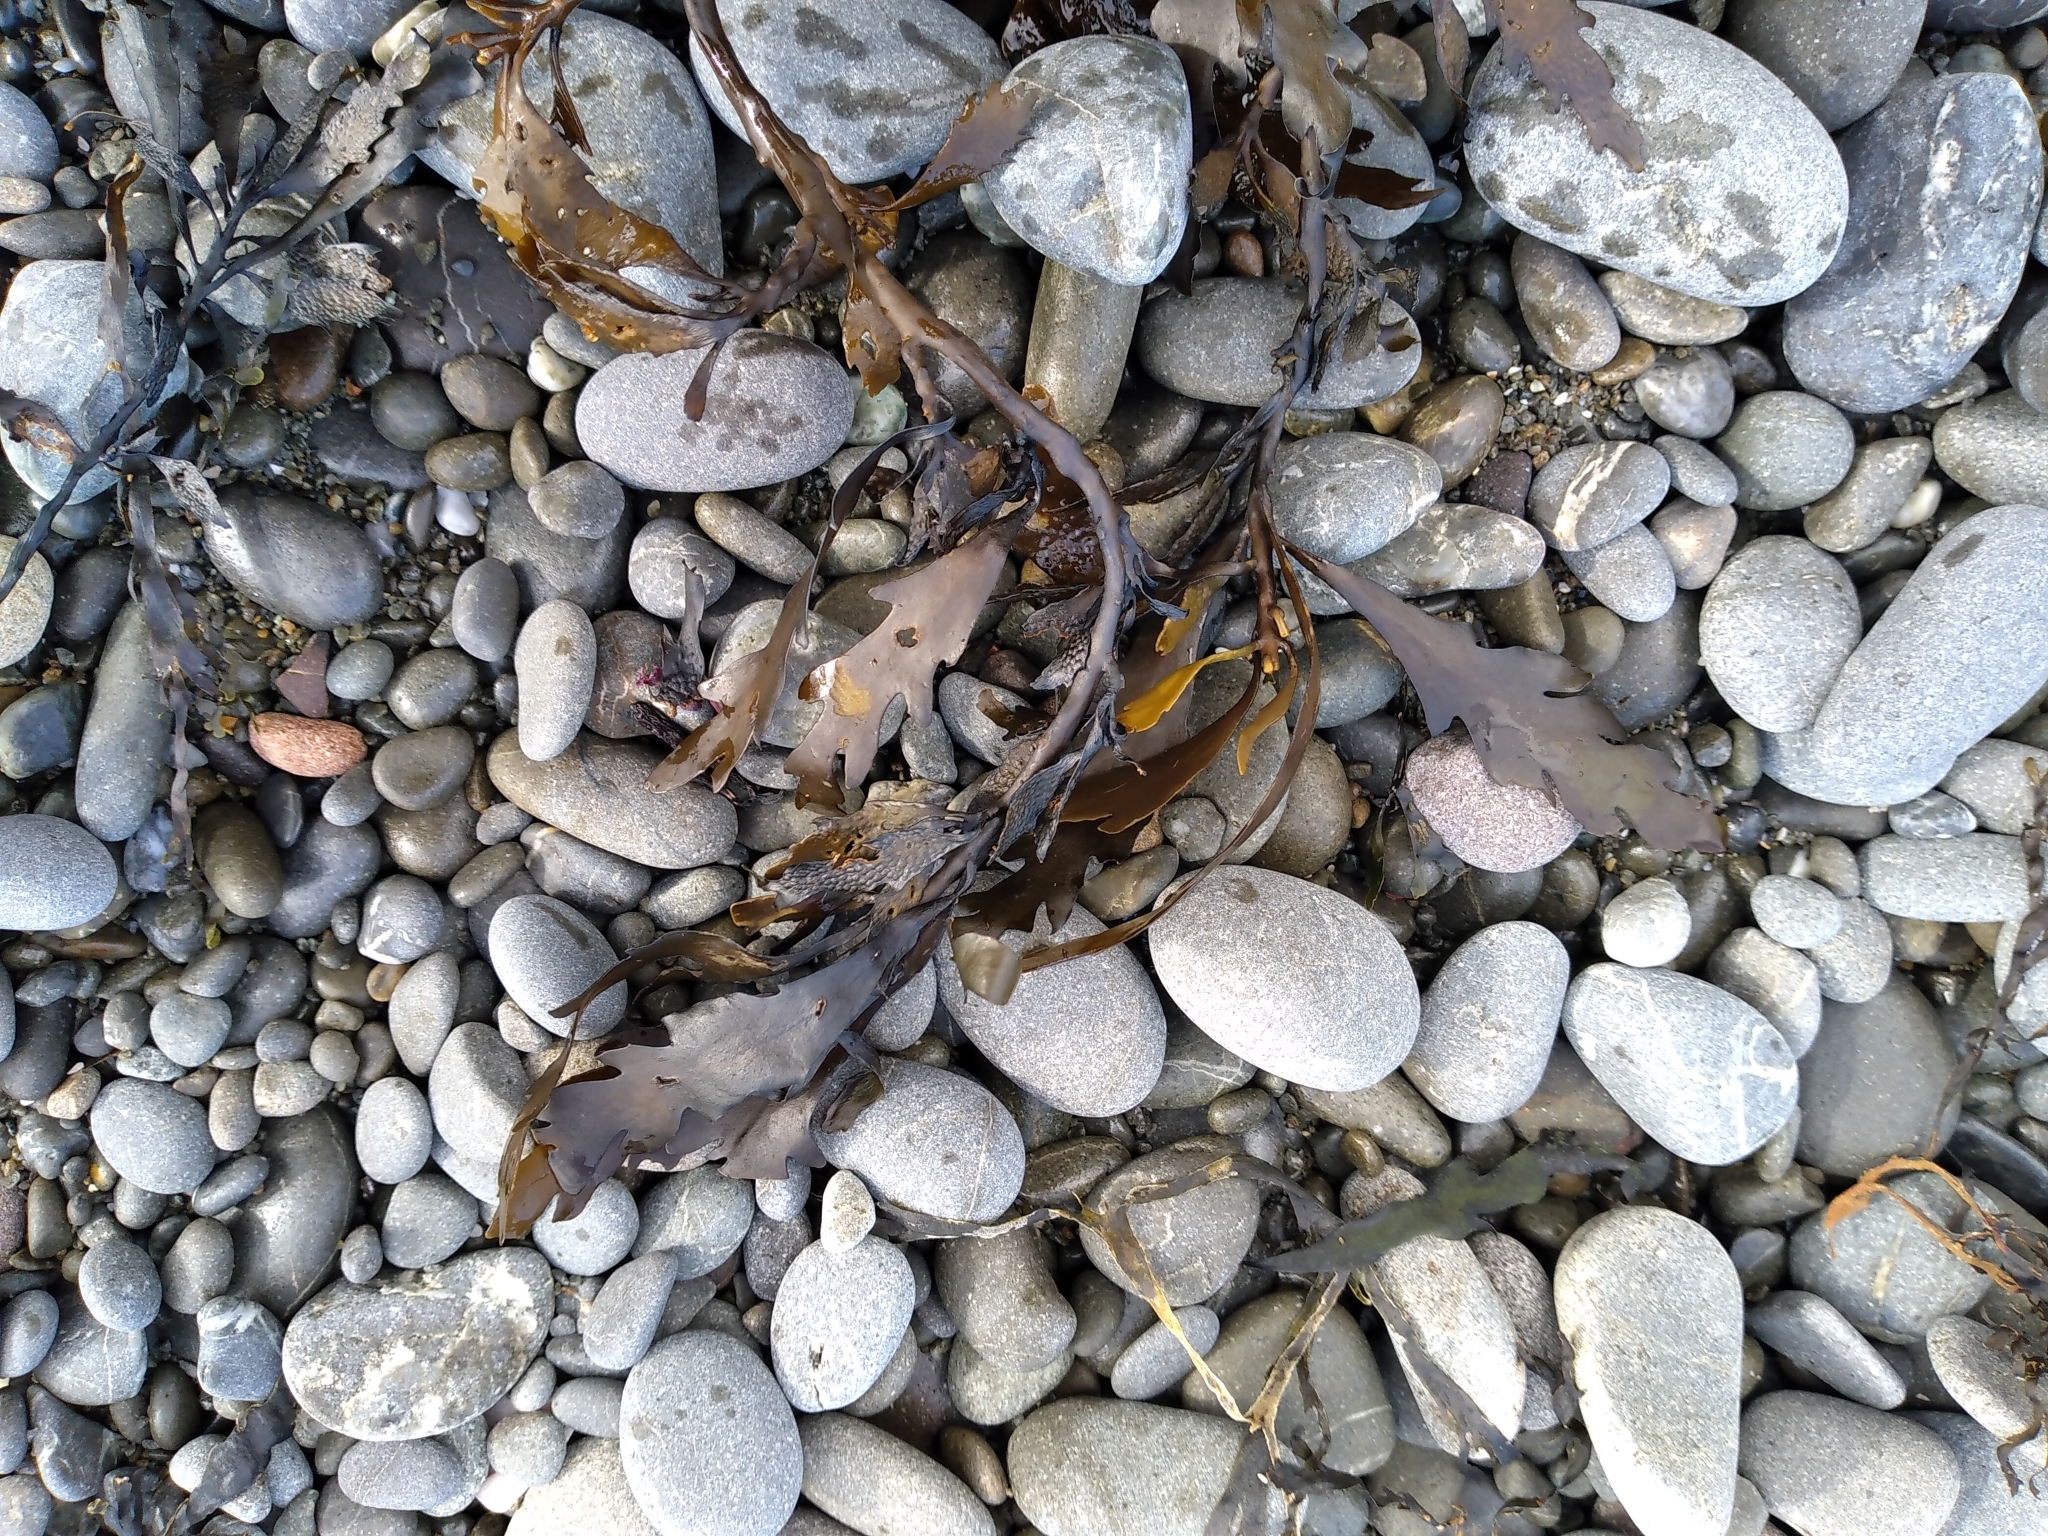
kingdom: Chromista
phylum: Ochrophyta
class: Phaeophyceae
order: Fucales
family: Sargassaceae
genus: Landsburgia
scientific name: Landsburgia quercifolia
